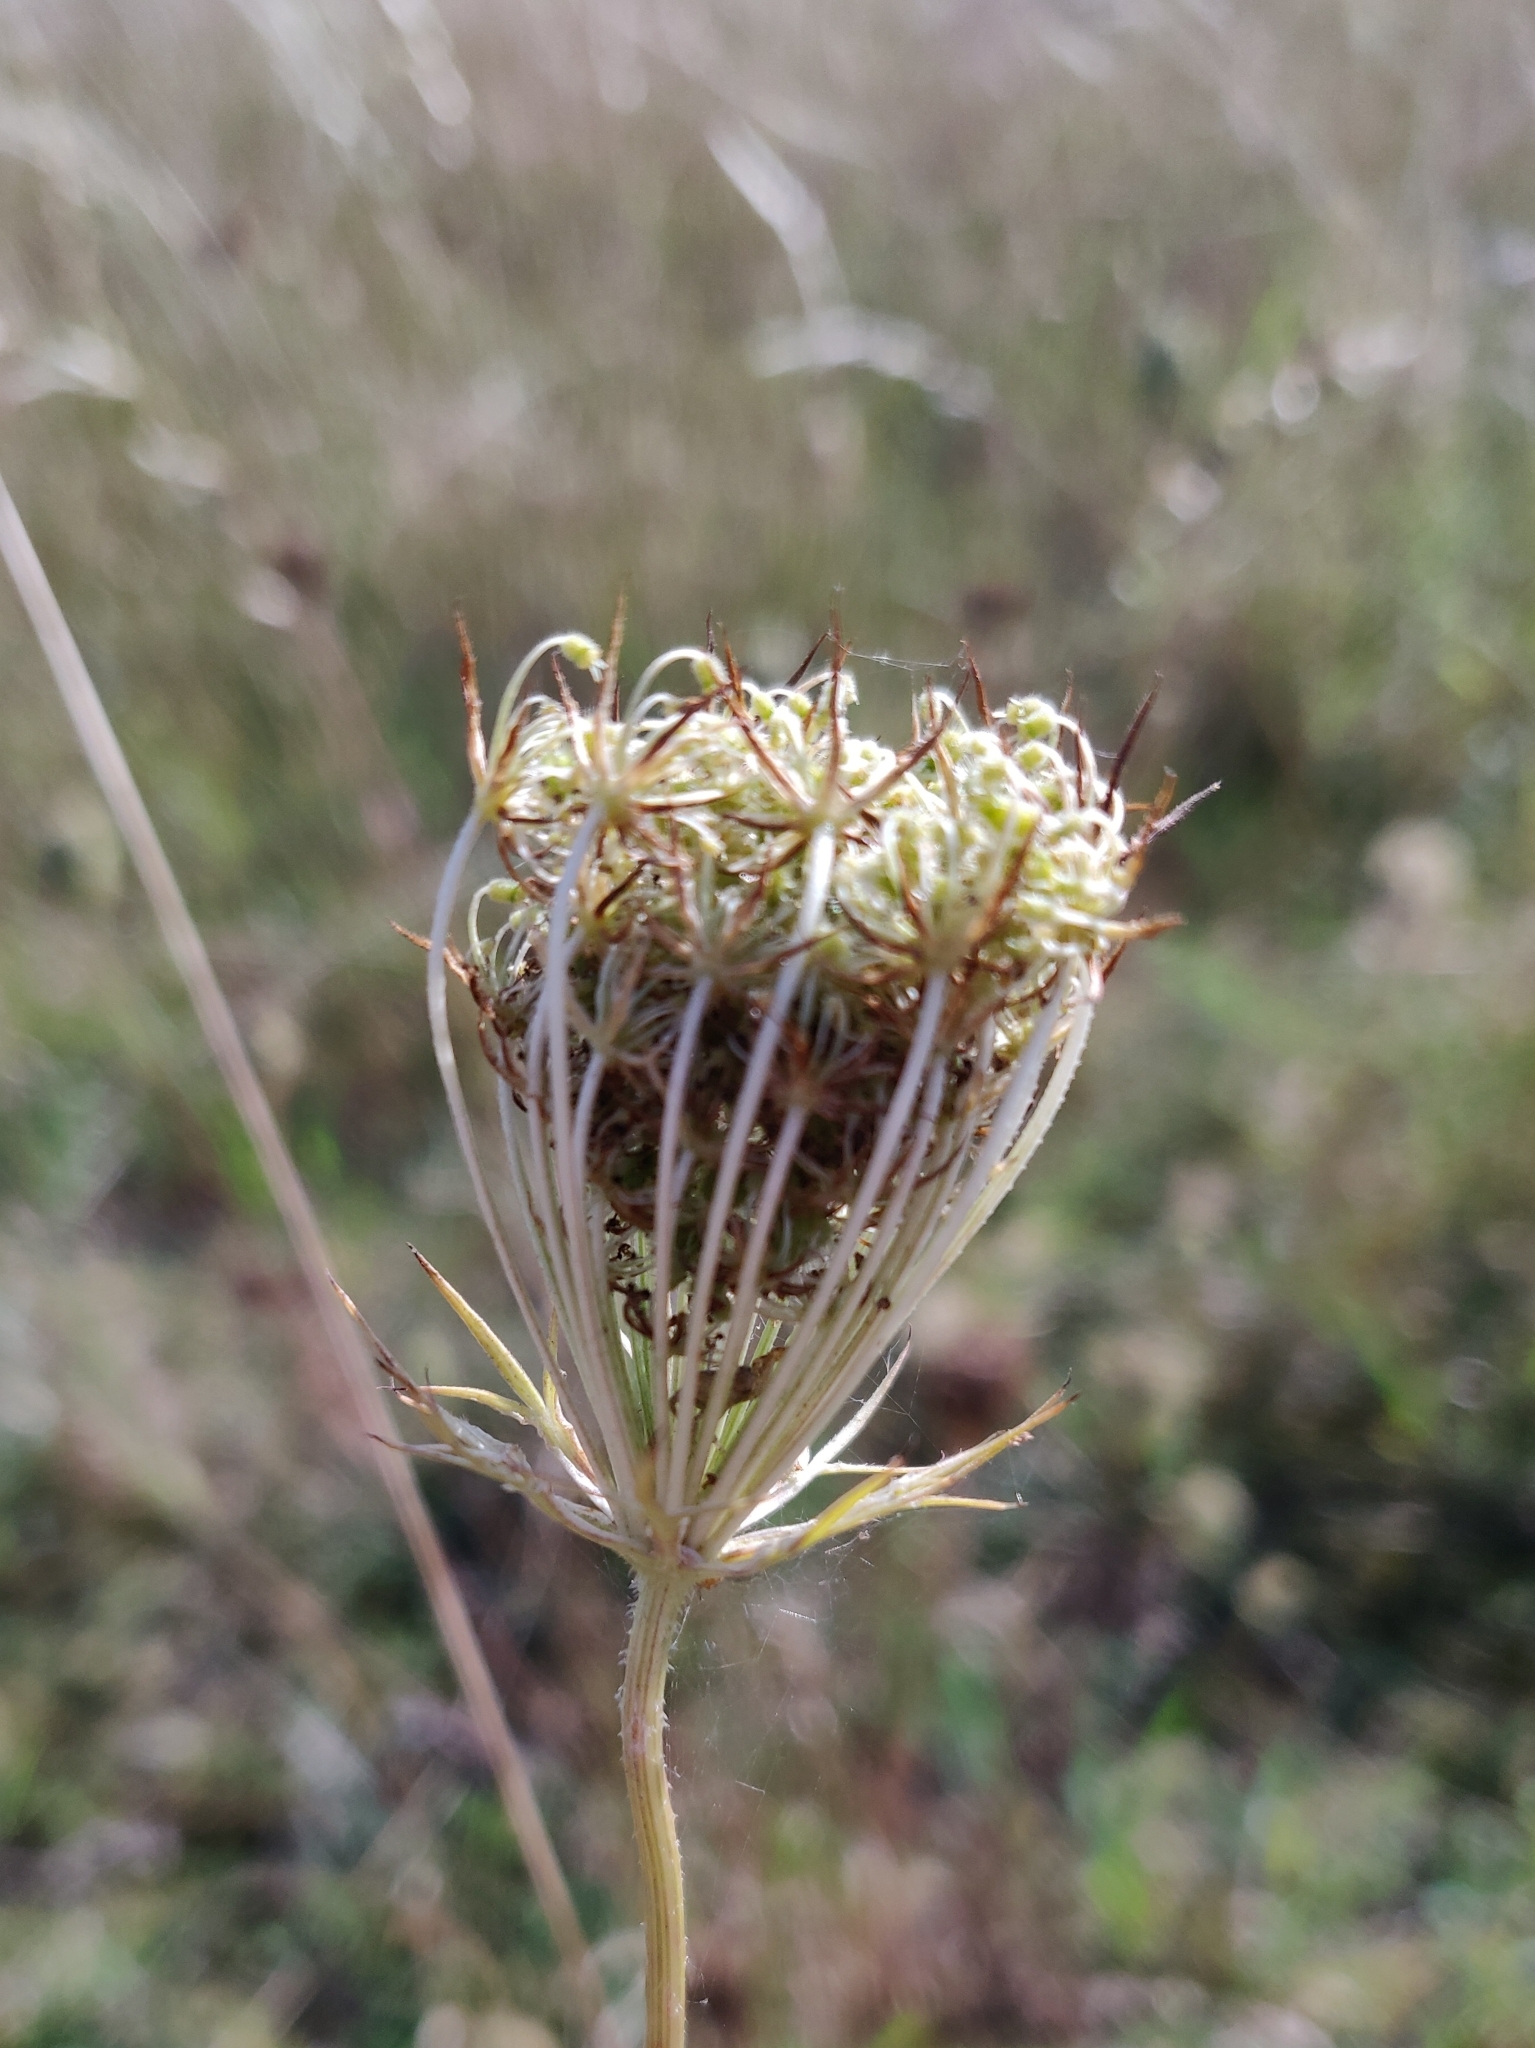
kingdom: Plantae
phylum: Tracheophyta
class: Magnoliopsida
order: Apiales
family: Apiaceae
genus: Daucus
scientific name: Daucus carota
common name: Wild carrot
